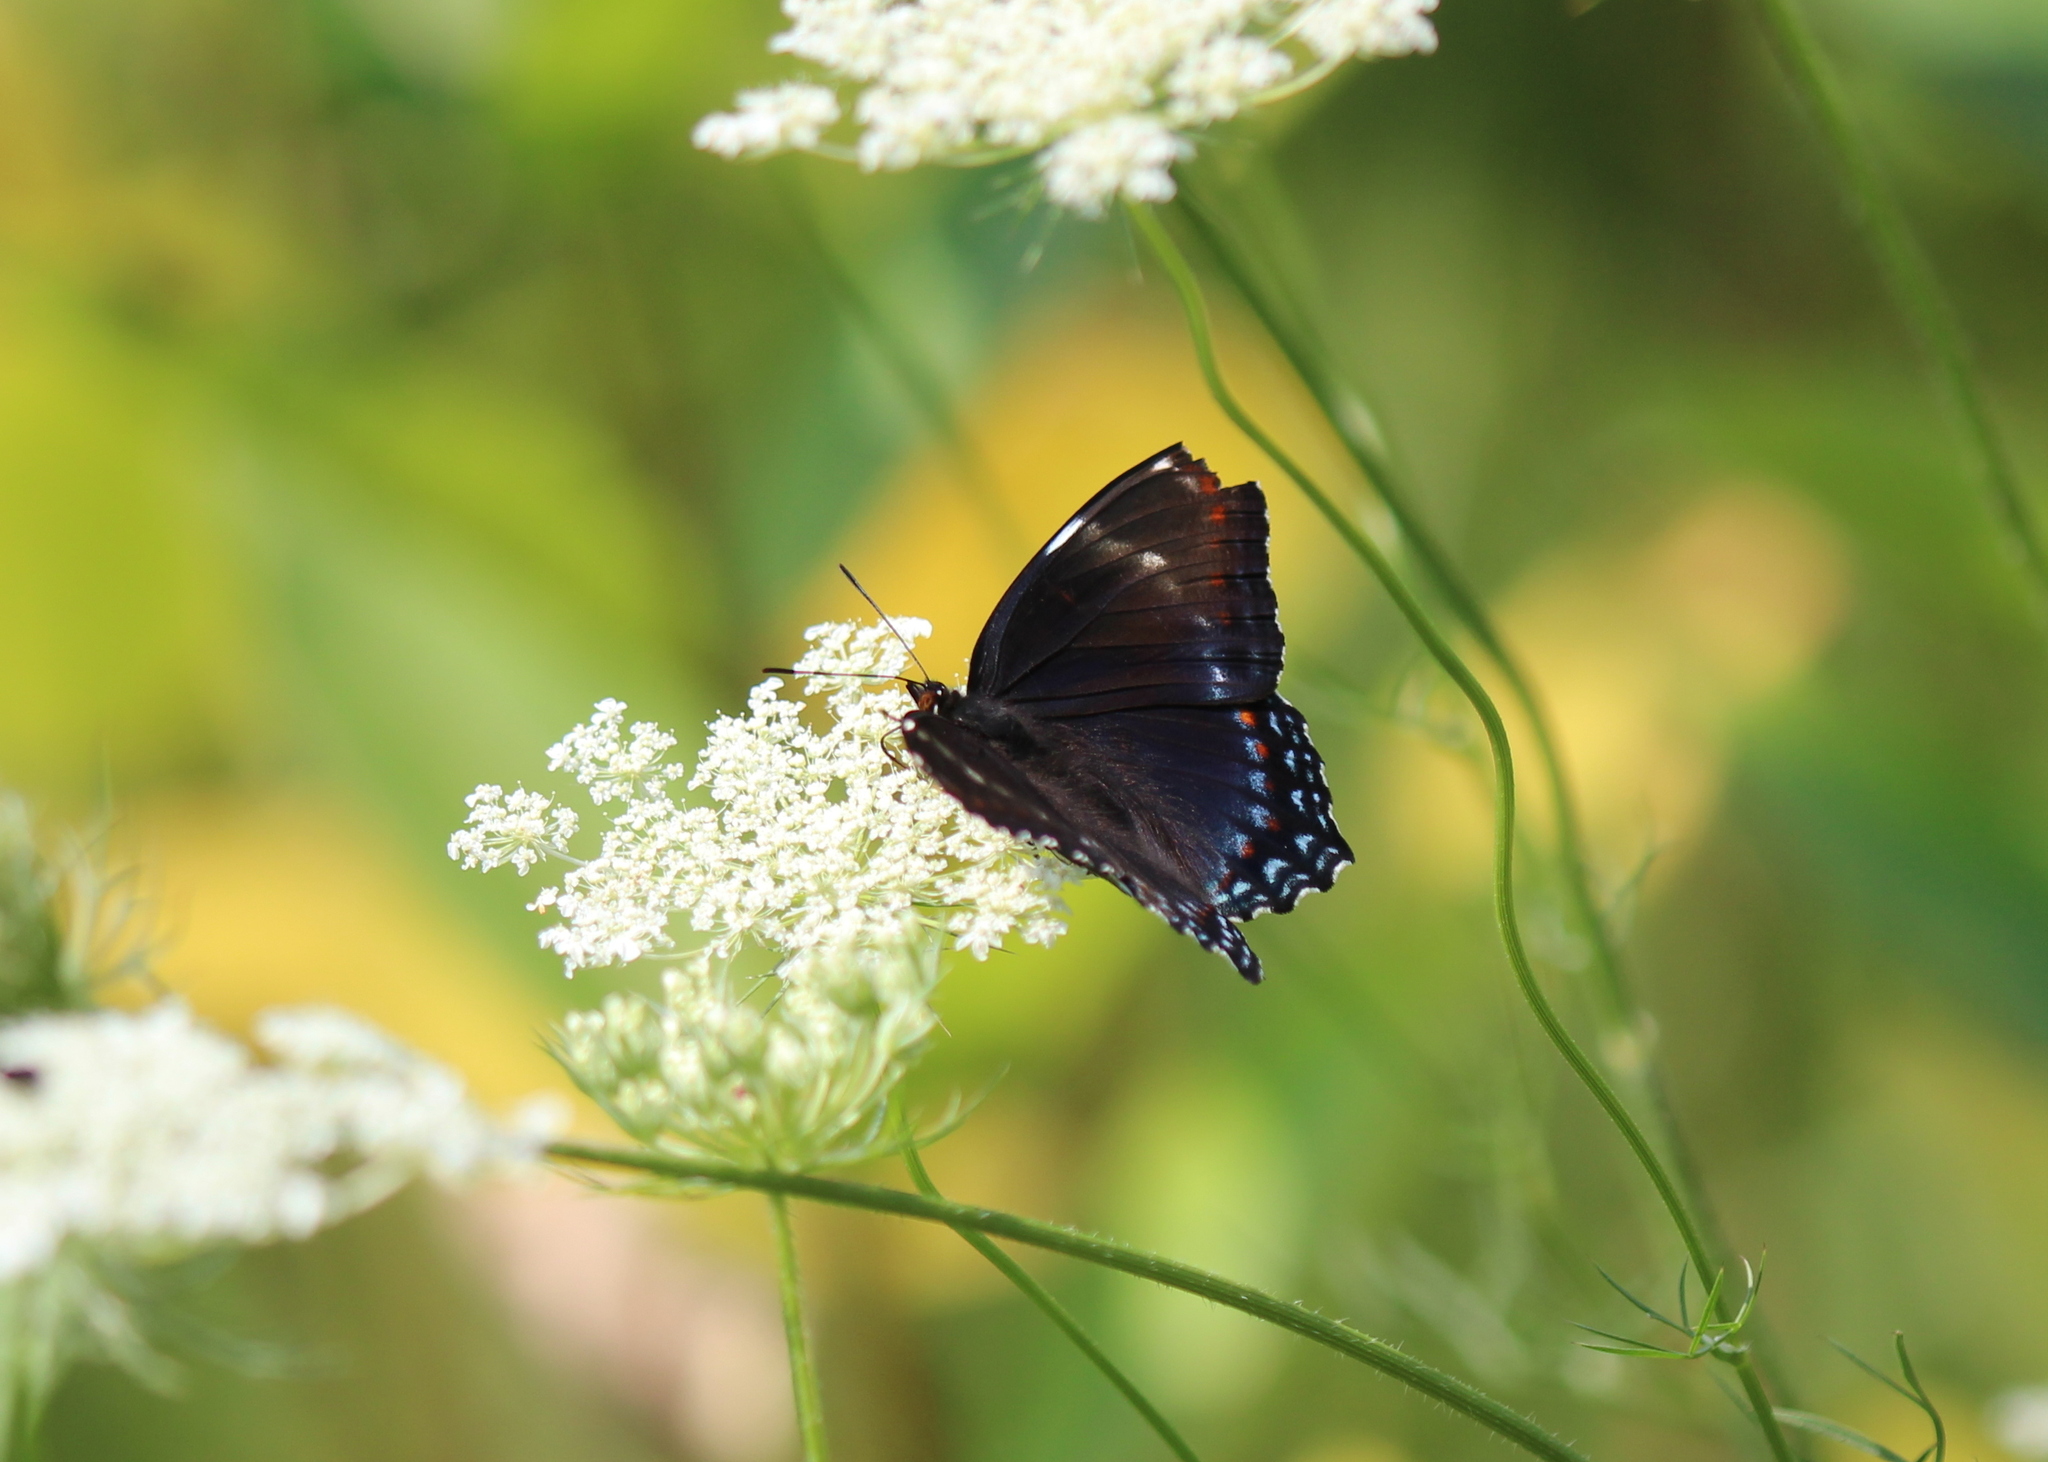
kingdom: Animalia
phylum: Arthropoda
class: Insecta
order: Lepidoptera
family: Nymphalidae
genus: Limenitis
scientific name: Limenitis
